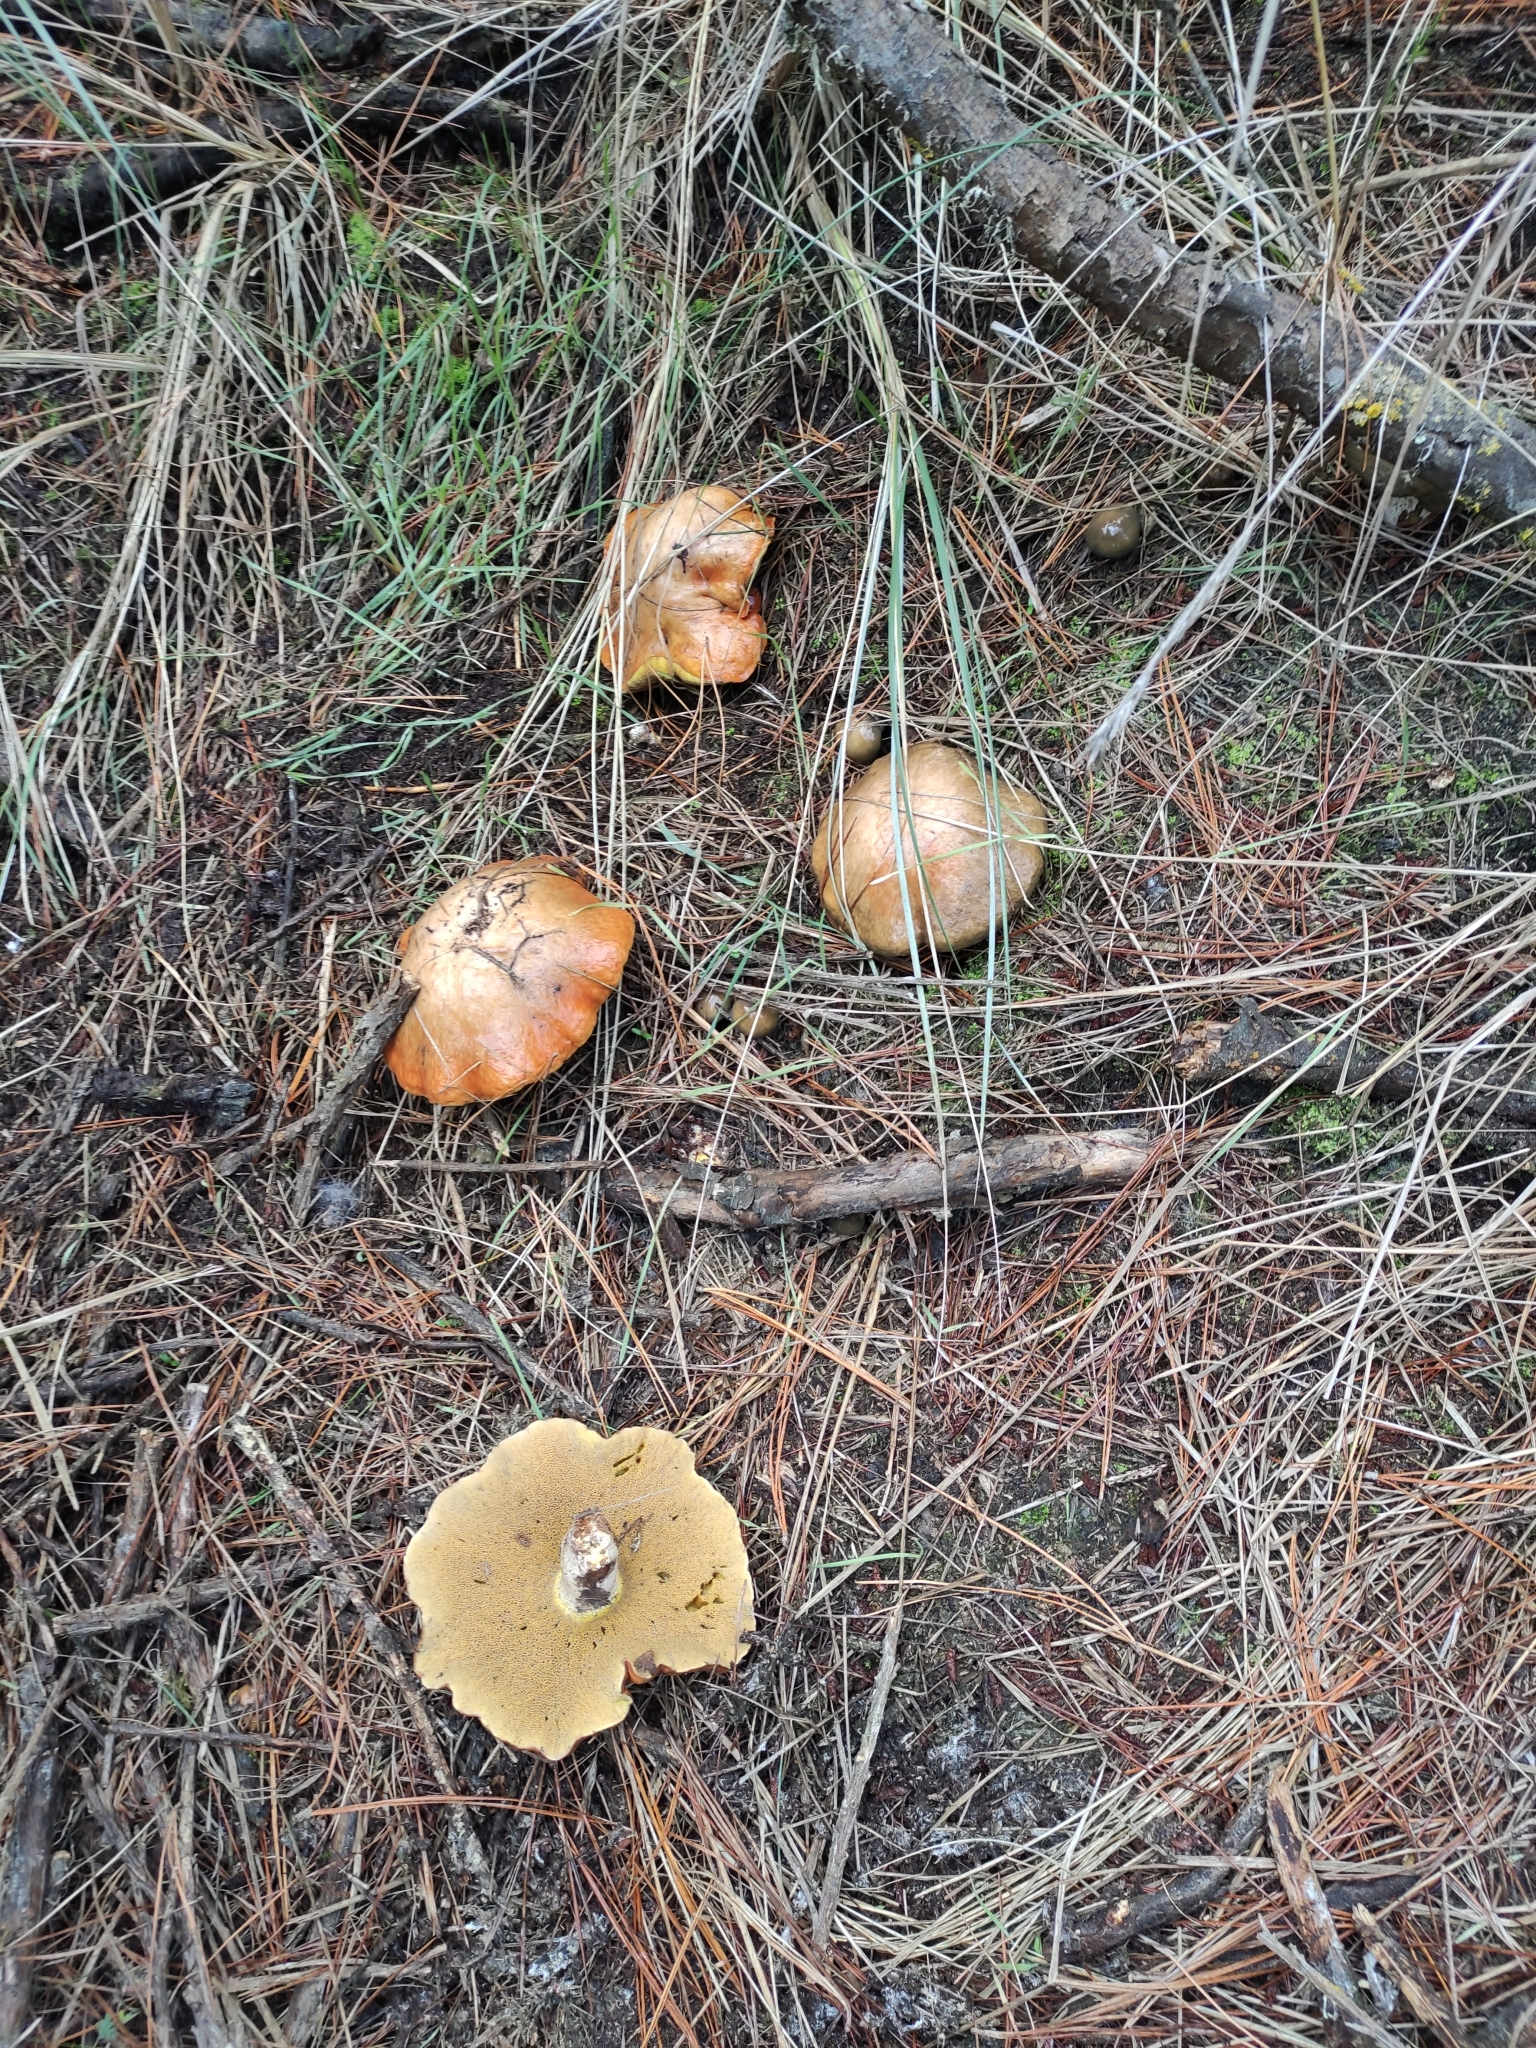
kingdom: Fungi
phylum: Basidiomycota
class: Agaricomycetes
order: Boletales
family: Suillaceae
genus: Suillus
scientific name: Suillus granulatus
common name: Weeping bolete
